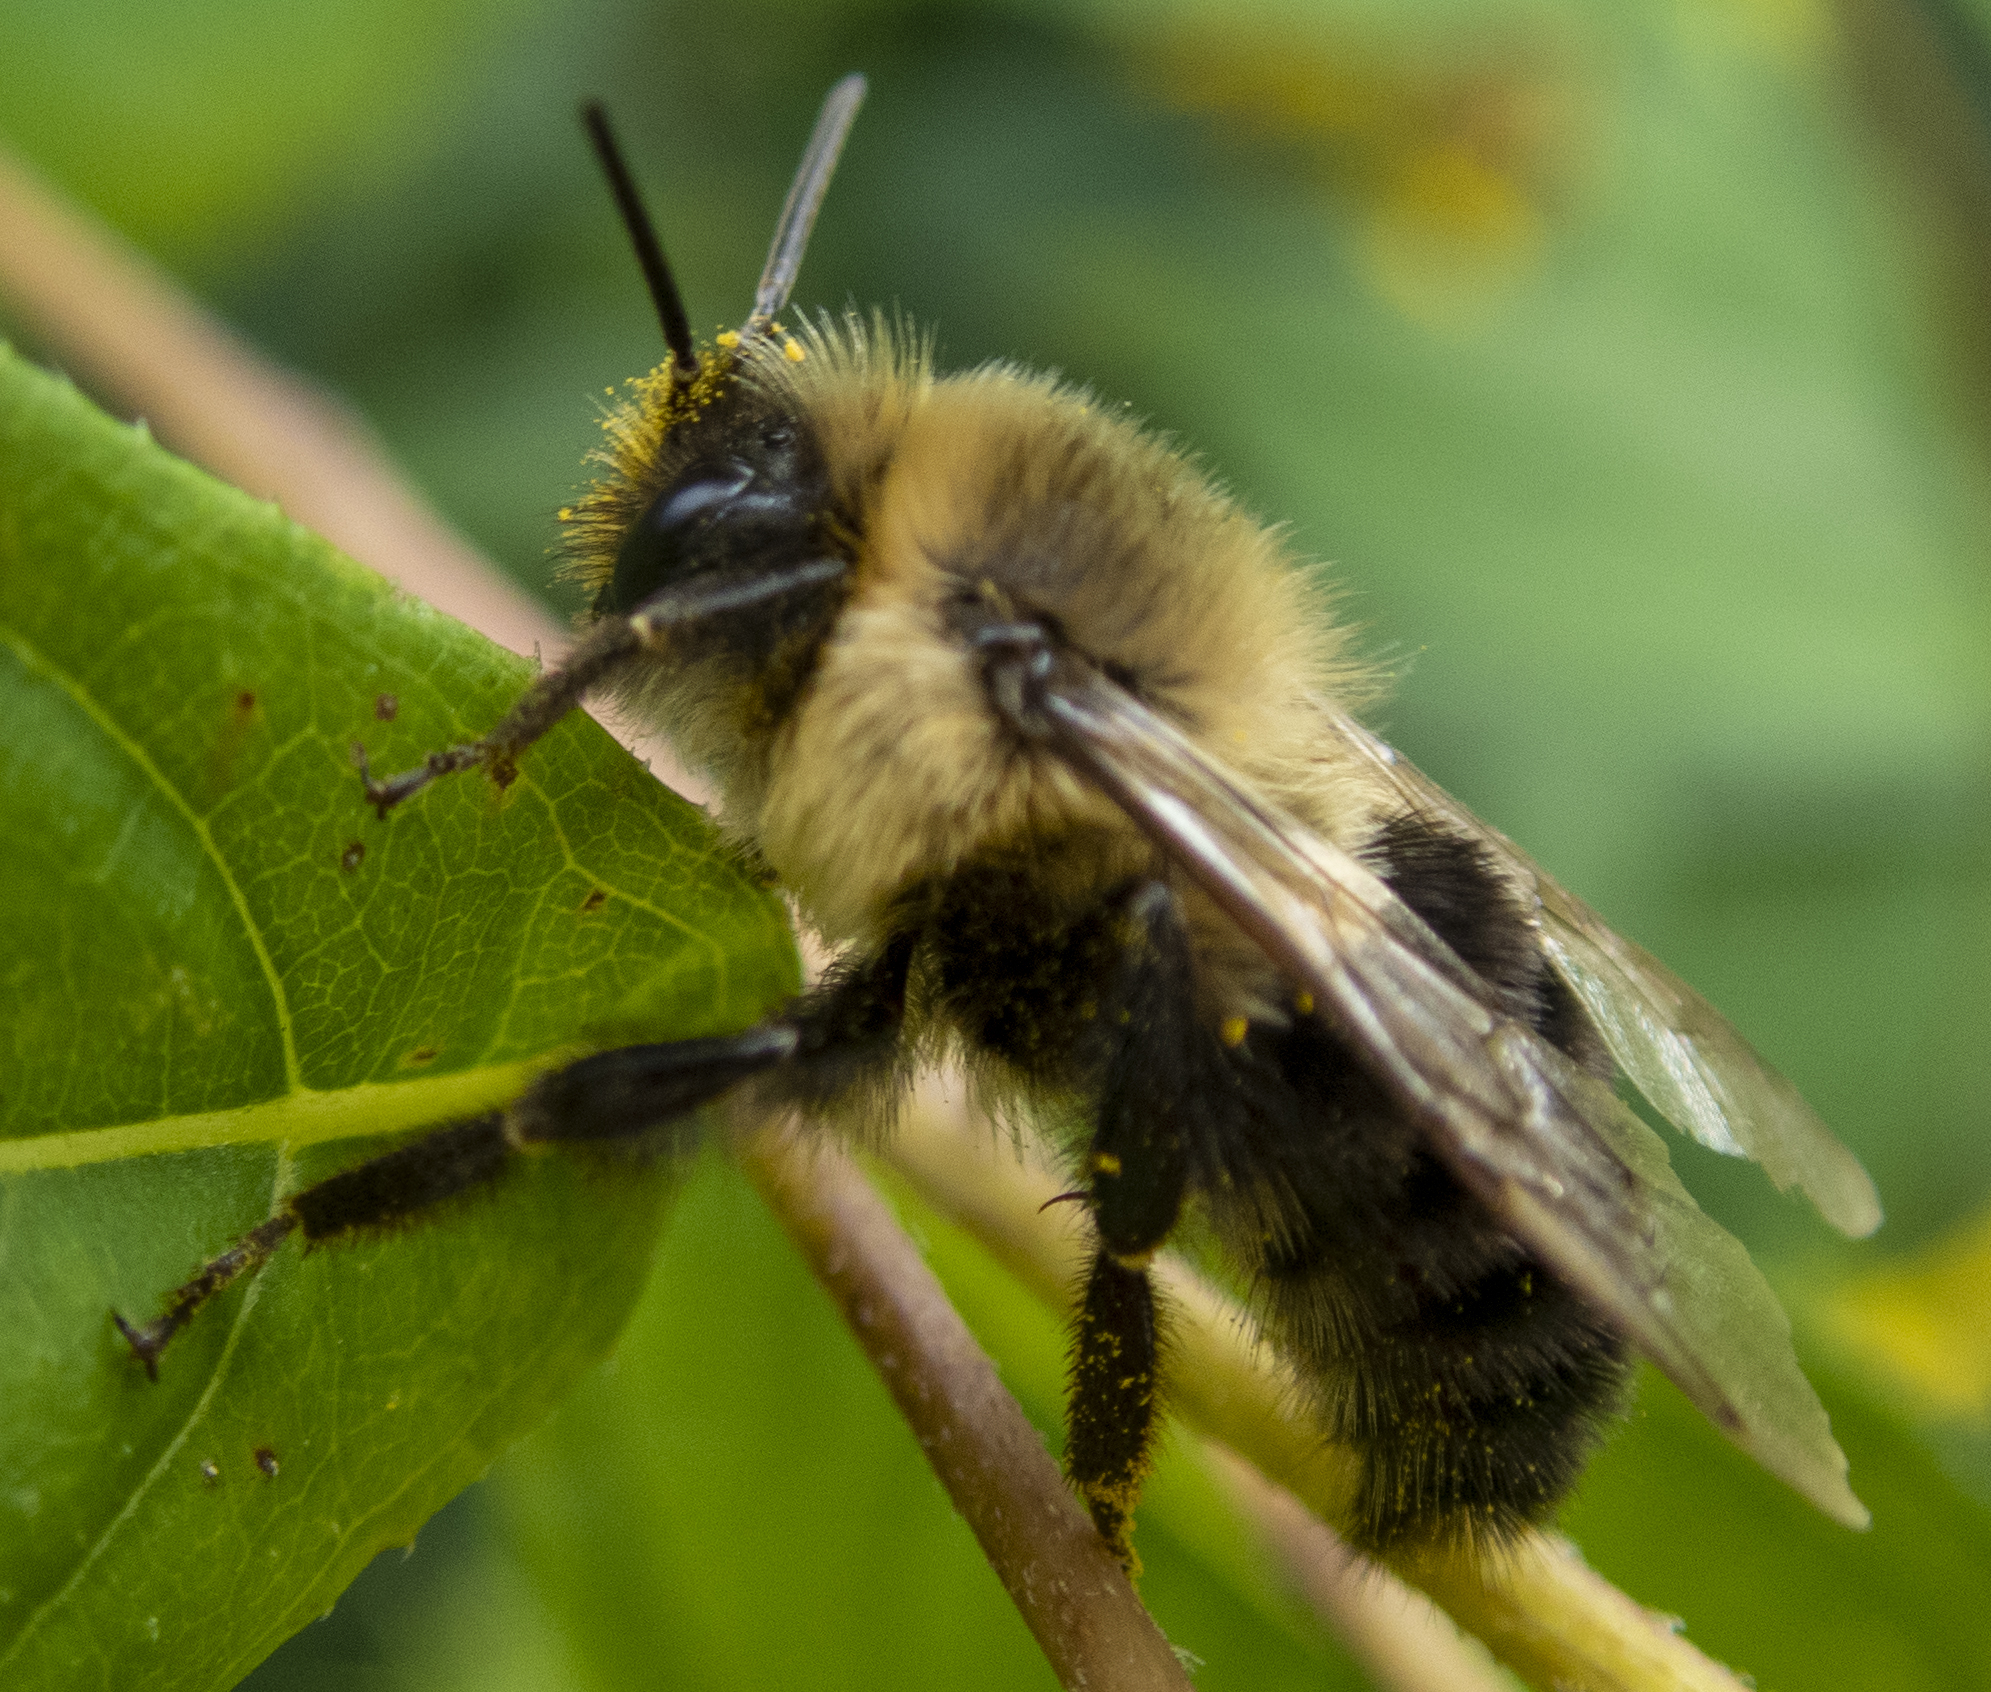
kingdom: Animalia
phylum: Arthropoda
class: Insecta
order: Hymenoptera
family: Apidae
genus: Bombus
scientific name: Bombus impatiens
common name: Common eastern bumble bee
